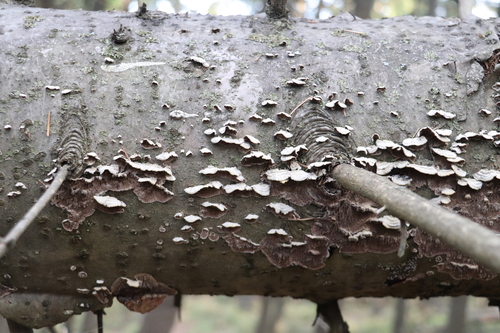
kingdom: Fungi
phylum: Basidiomycota
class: Agaricomycetes
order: Hymenochaetales
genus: Trichaptum
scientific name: Trichaptum fuscoviolaceum
